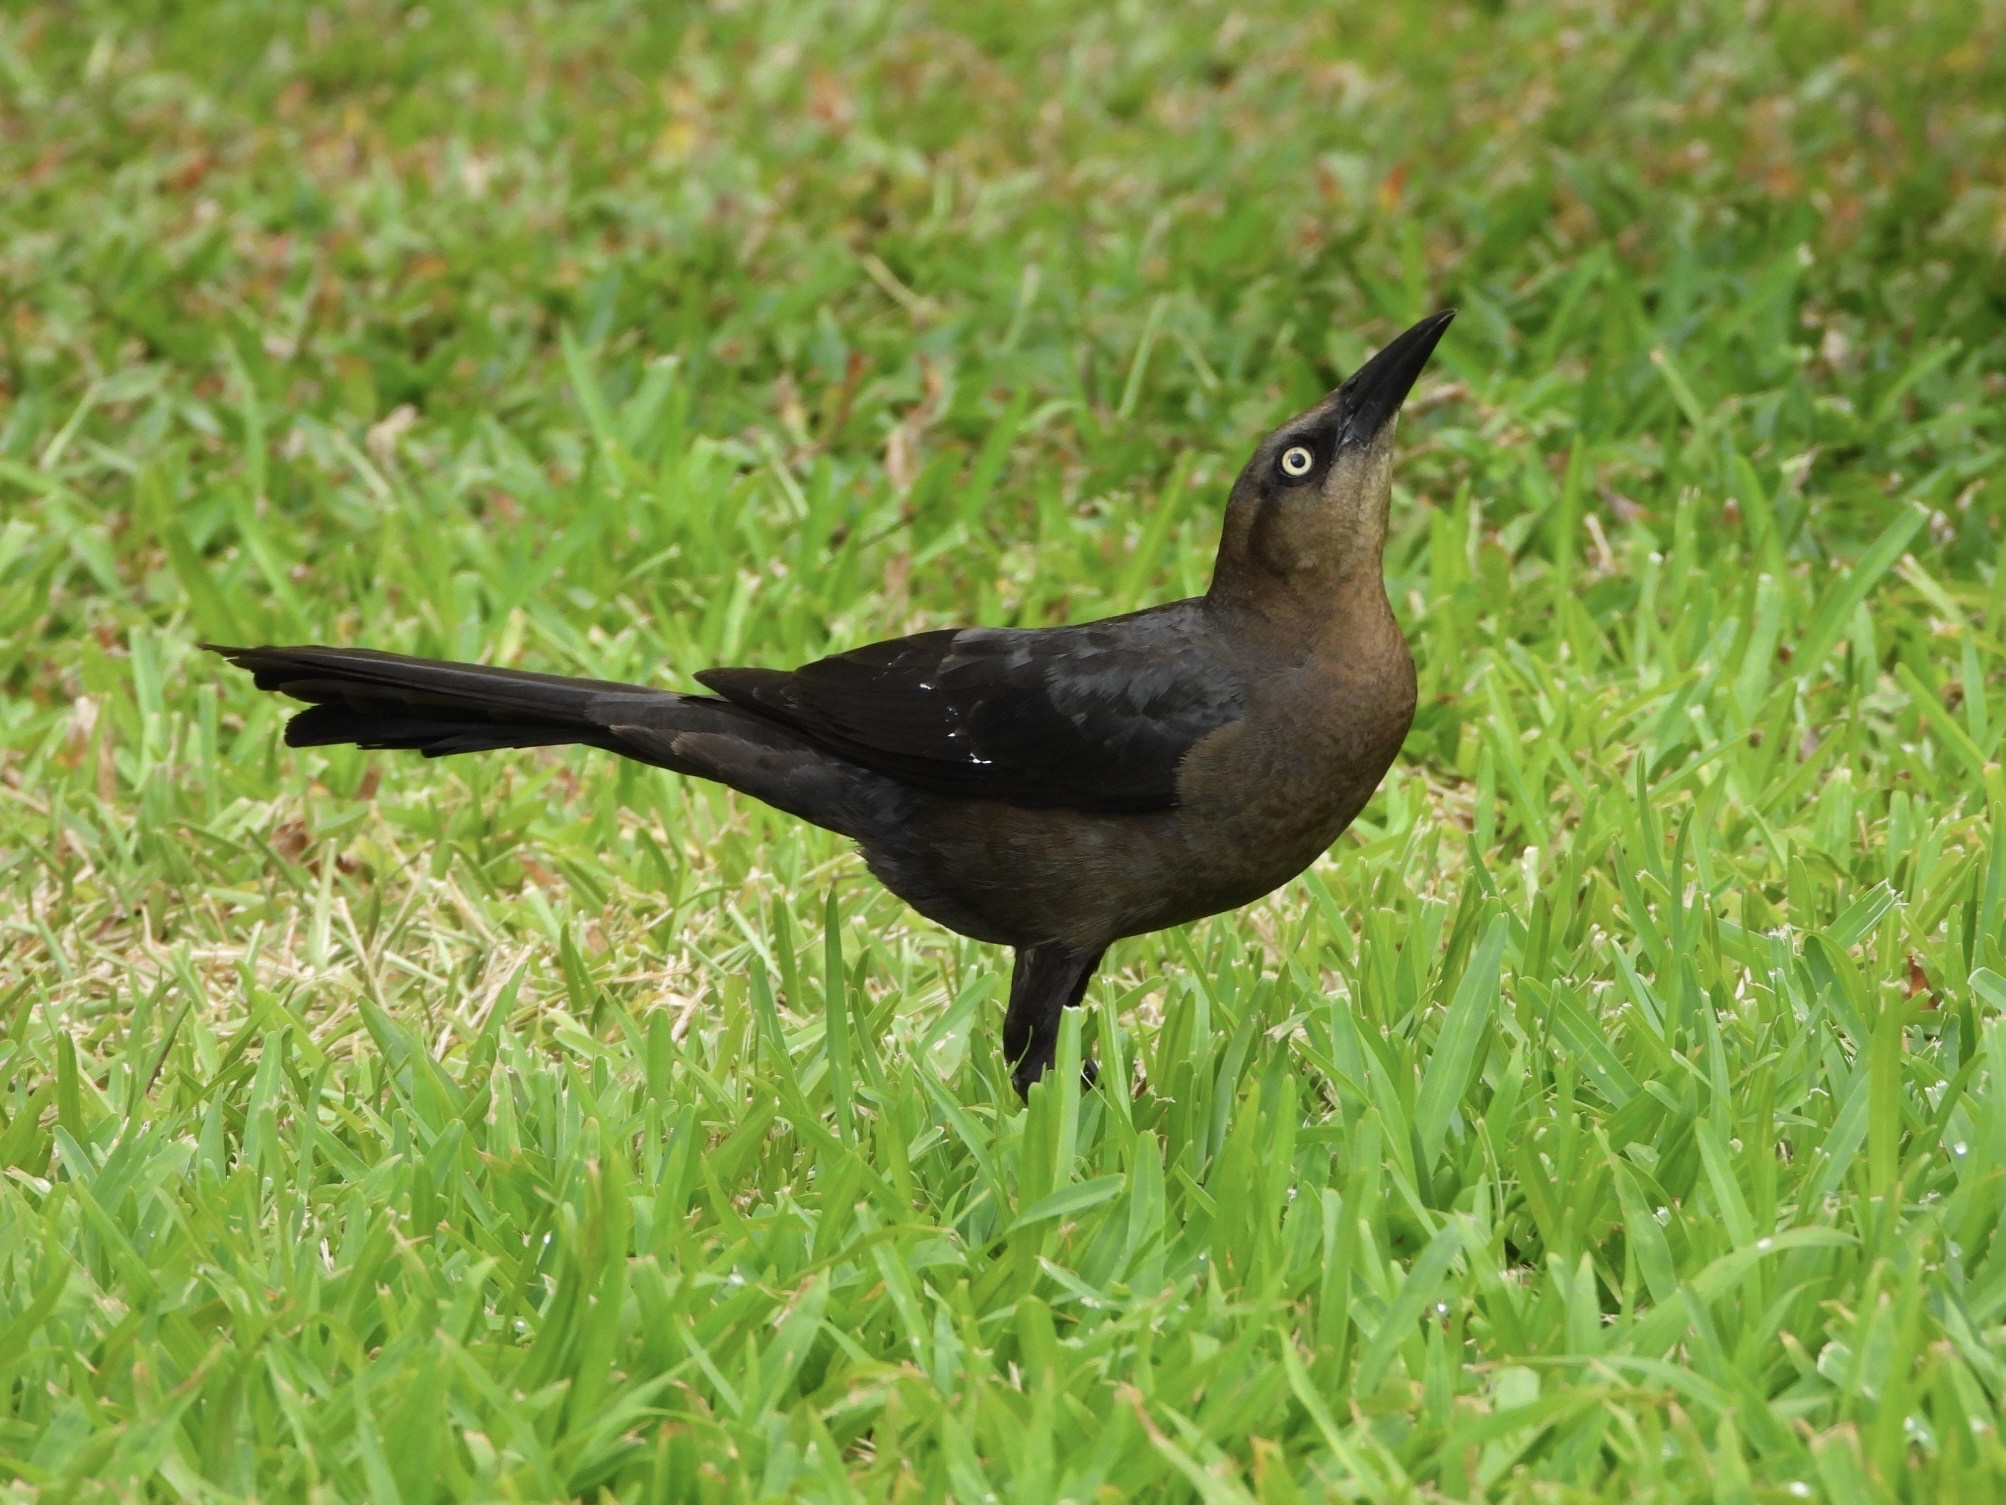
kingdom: Animalia
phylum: Chordata
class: Aves
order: Passeriformes
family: Icteridae
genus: Quiscalus
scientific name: Quiscalus mexicanus
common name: Great-tailed grackle
